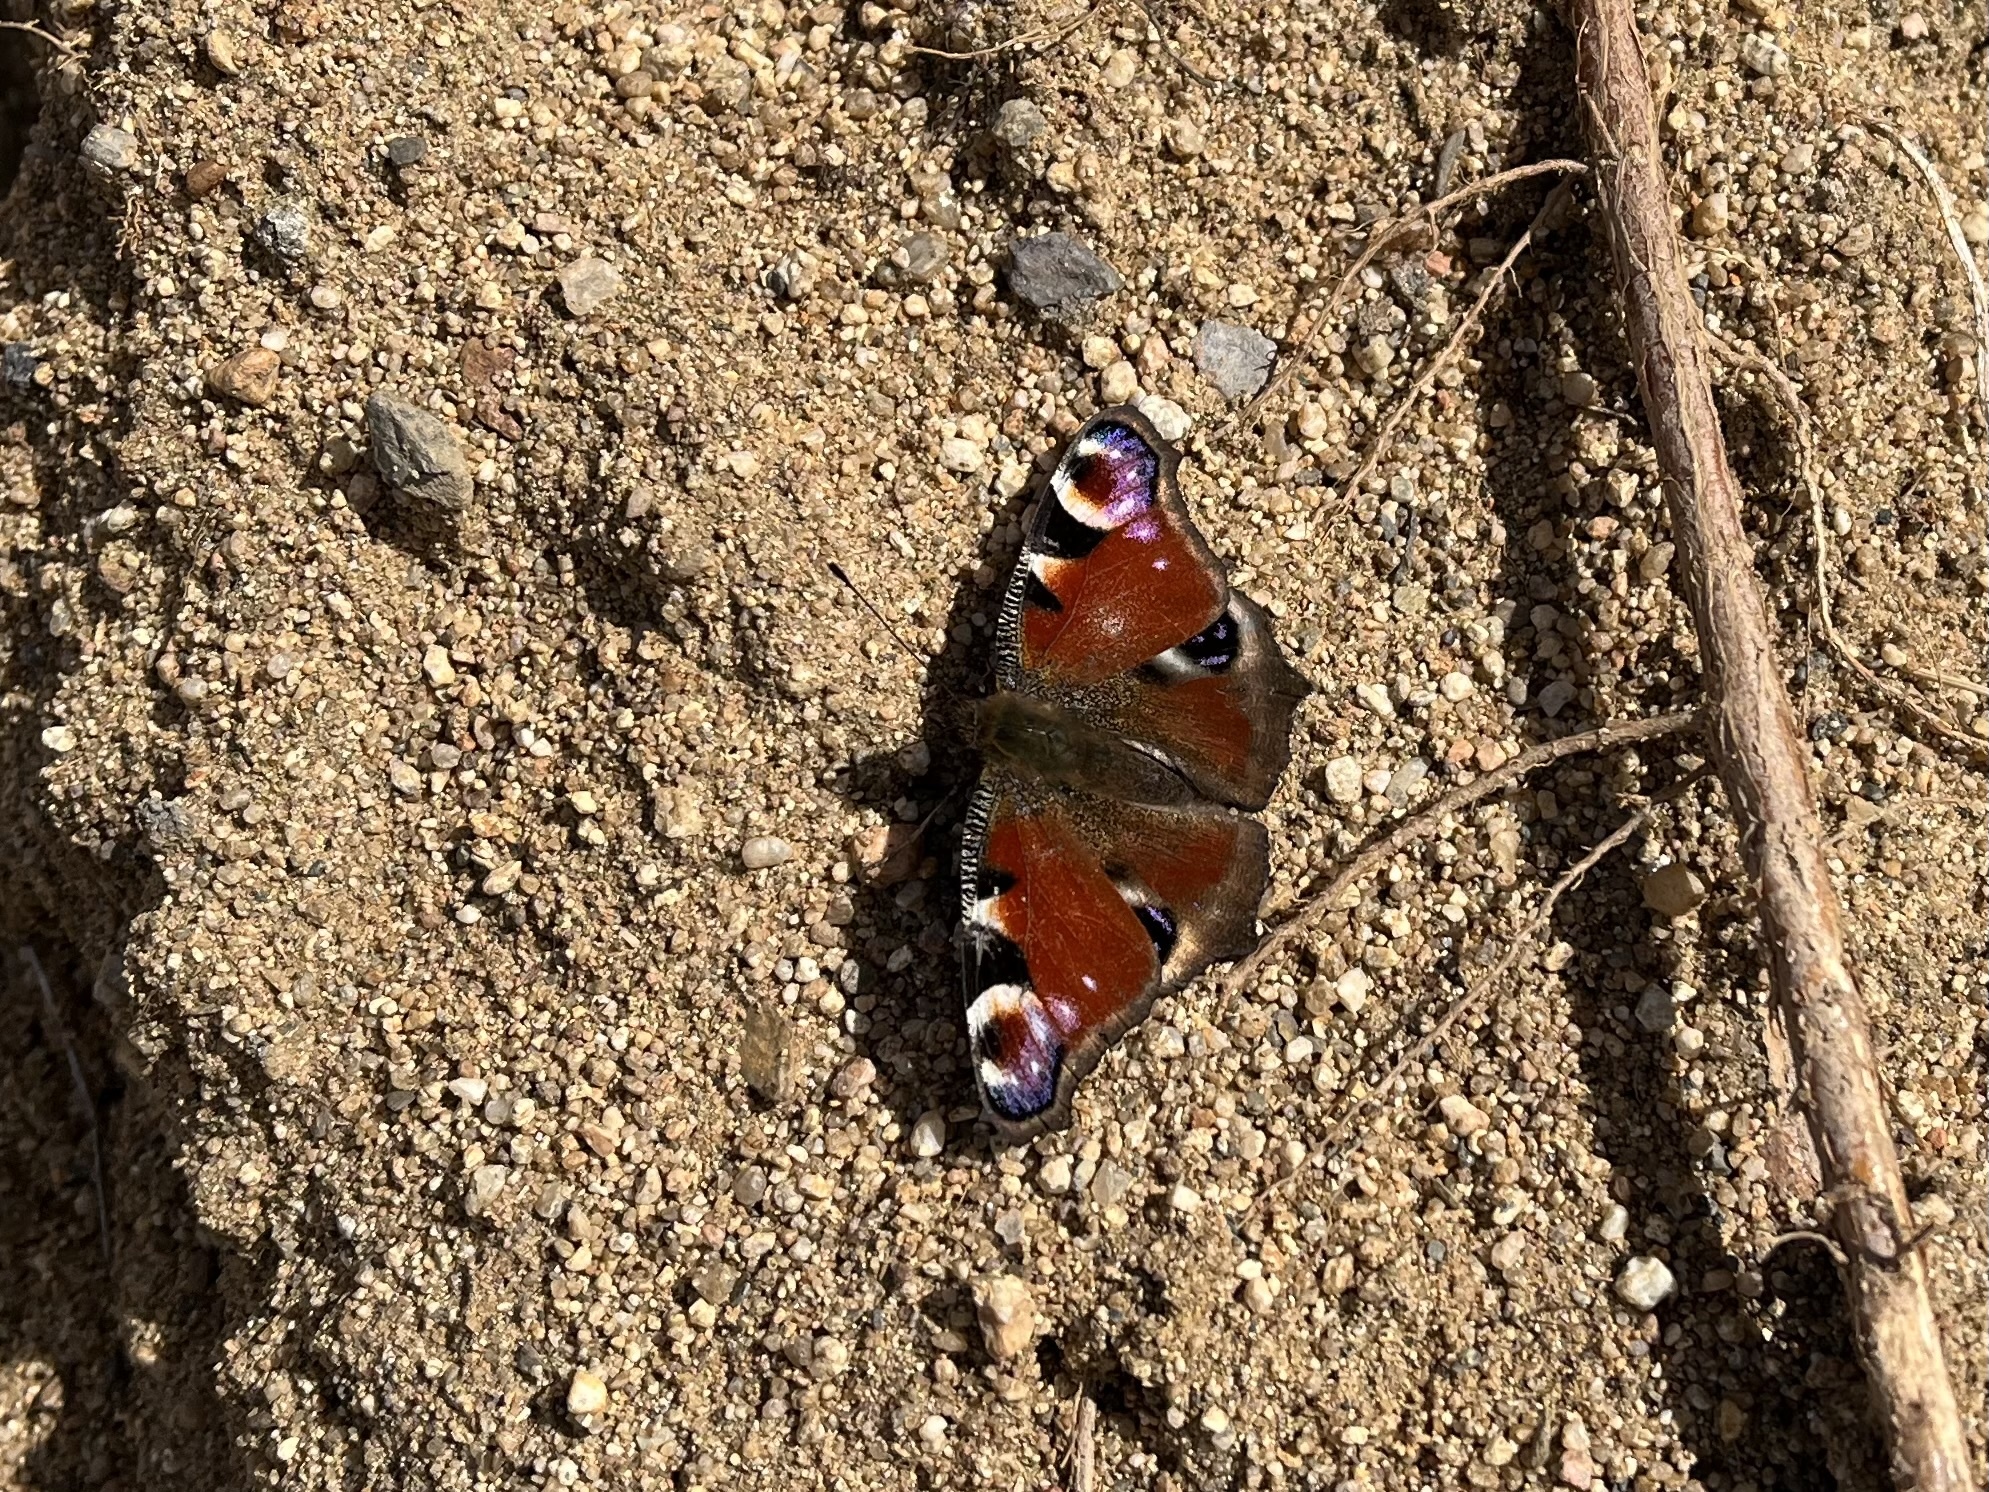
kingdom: Animalia
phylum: Arthropoda
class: Insecta
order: Lepidoptera
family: Nymphalidae
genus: Aglais
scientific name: Aglais io
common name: Peacock
